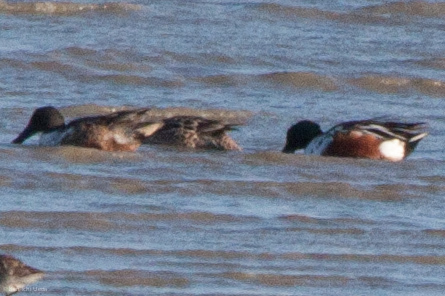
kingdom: Animalia
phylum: Chordata
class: Aves
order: Anseriformes
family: Anatidae
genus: Spatula
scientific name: Spatula clypeata
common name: Northern shoveler
